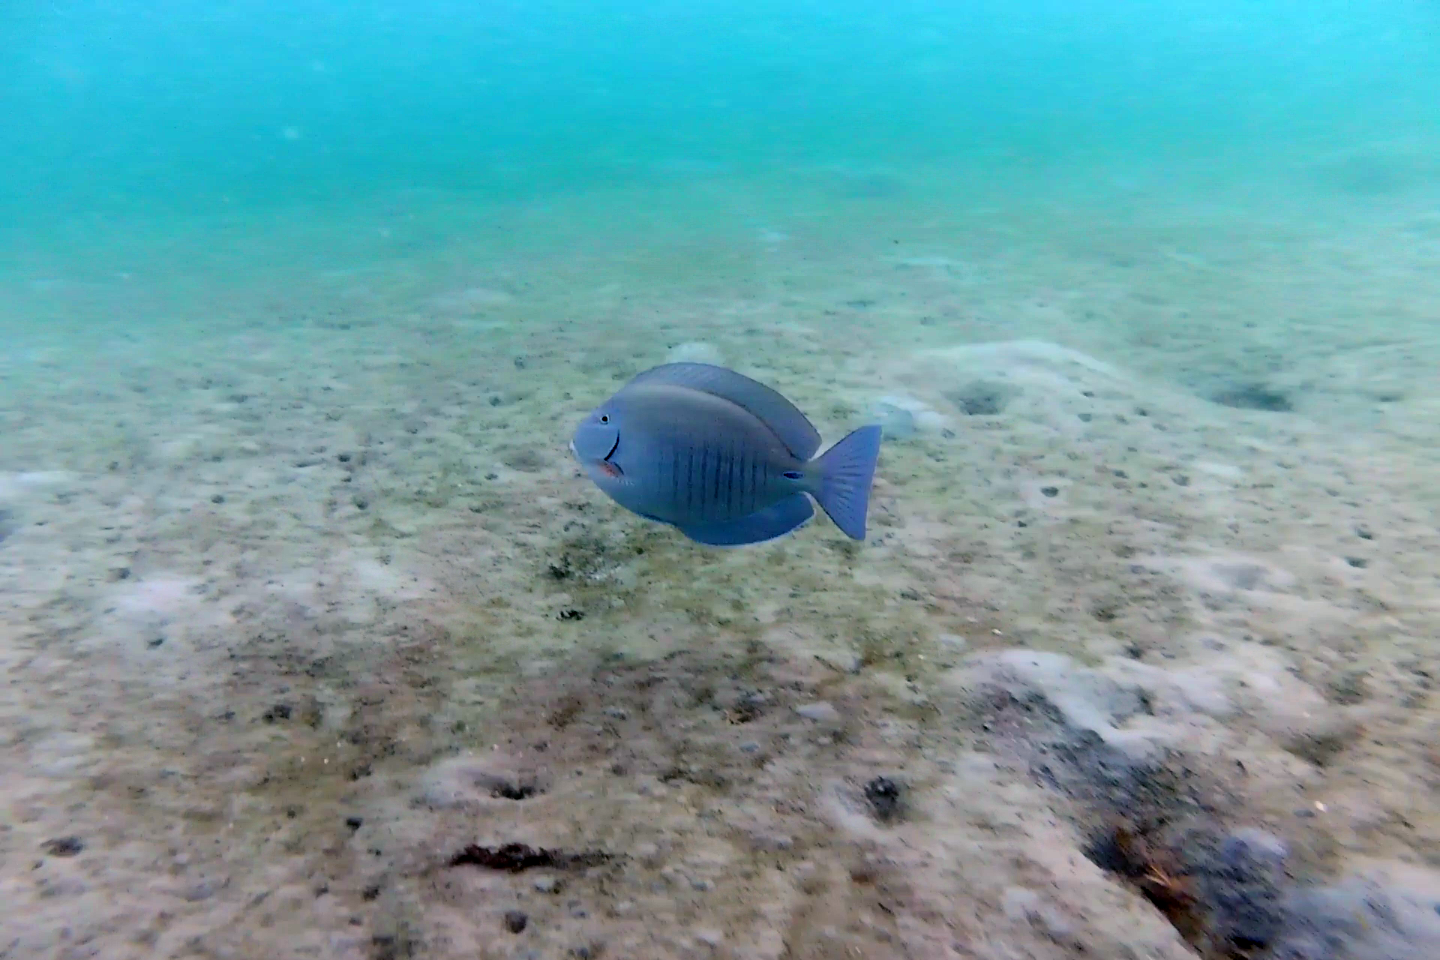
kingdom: Animalia
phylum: Chordata
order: Perciformes
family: Acanthuridae
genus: Acanthurus
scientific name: Acanthurus chirurgus
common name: Doctorfish
